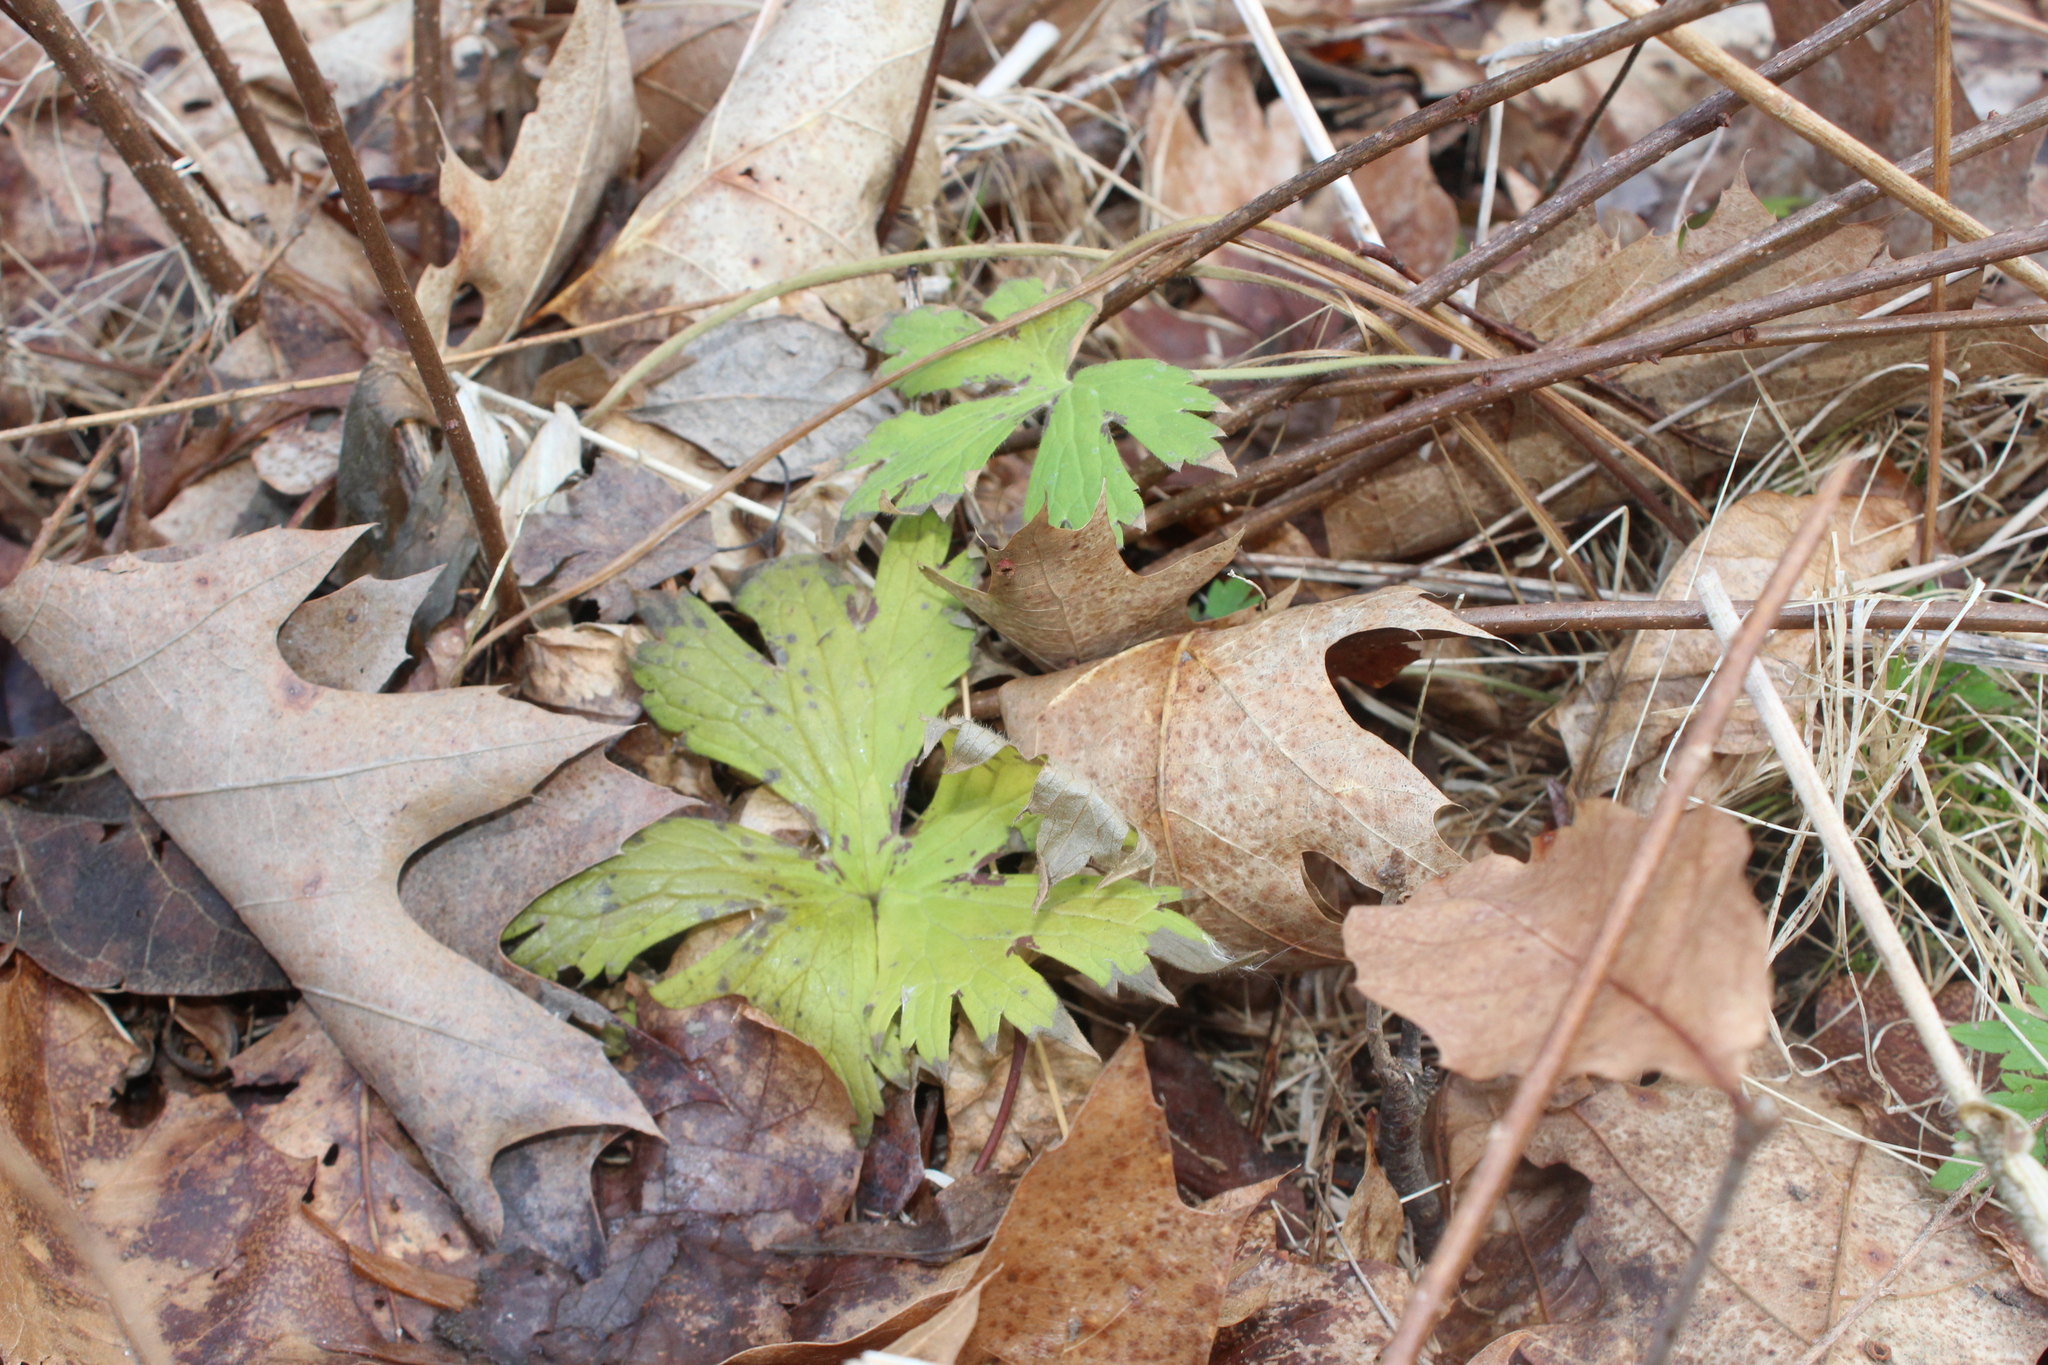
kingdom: Plantae
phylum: Tracheophyta
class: Magnoliopsida
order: Geraniales
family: Geraniaceae
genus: Geranium
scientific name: Geranium maculatum
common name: Spotted geranium
